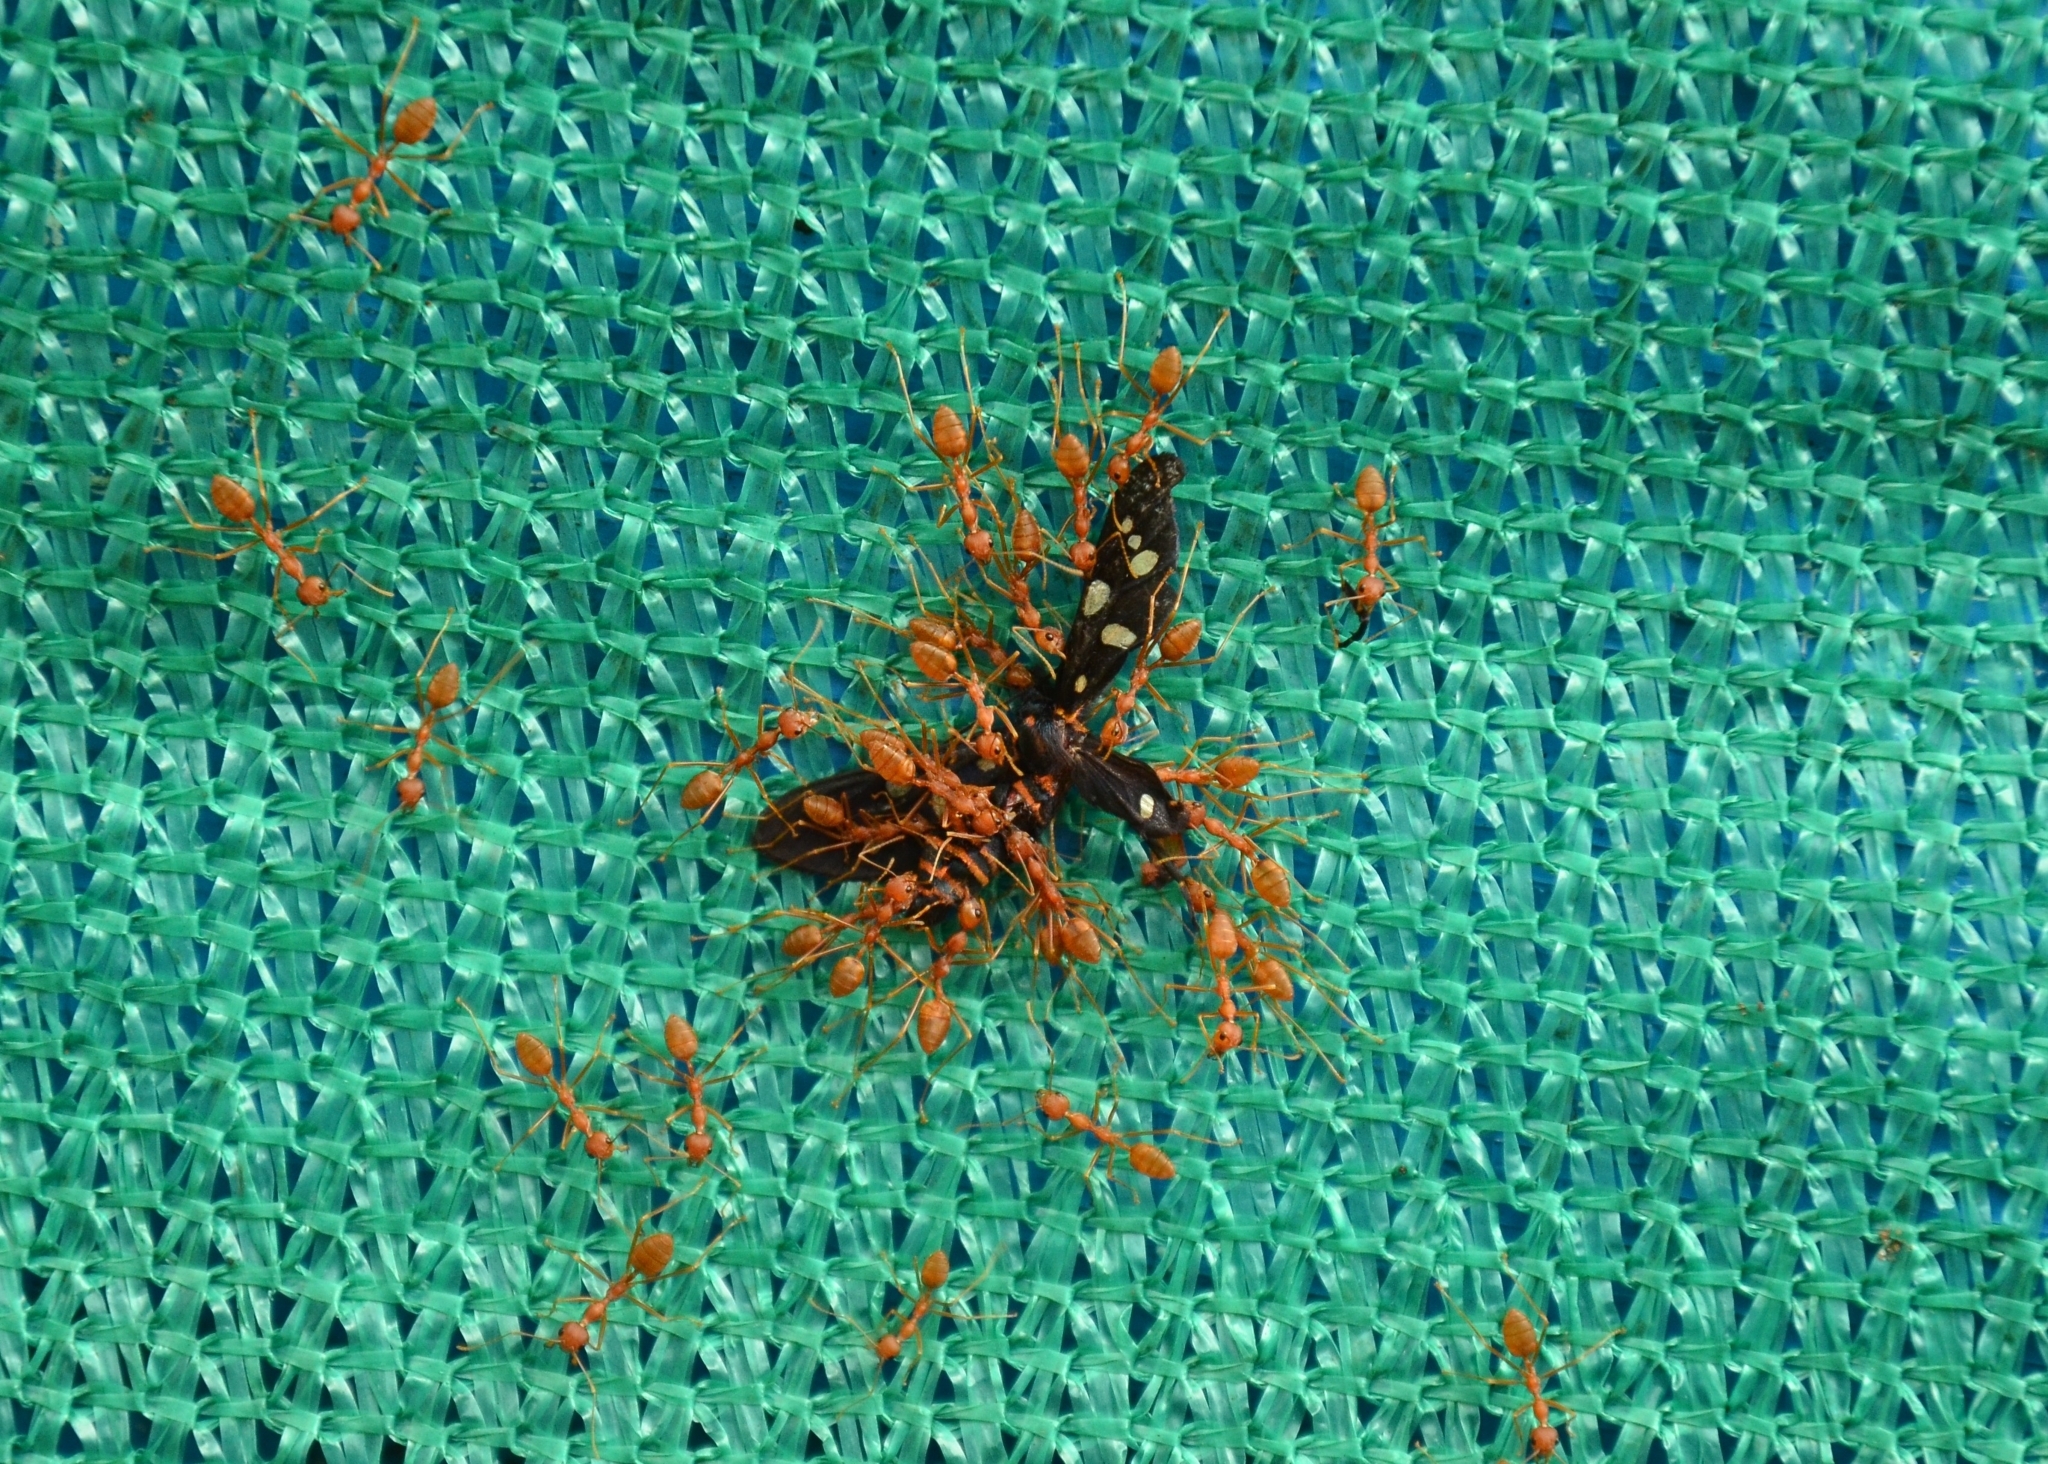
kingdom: Animalia
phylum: Arthropoda
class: Insecta
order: Hymenoptera
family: Formicidae
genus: Oecophylla
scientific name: Oecophylla smaragdina
